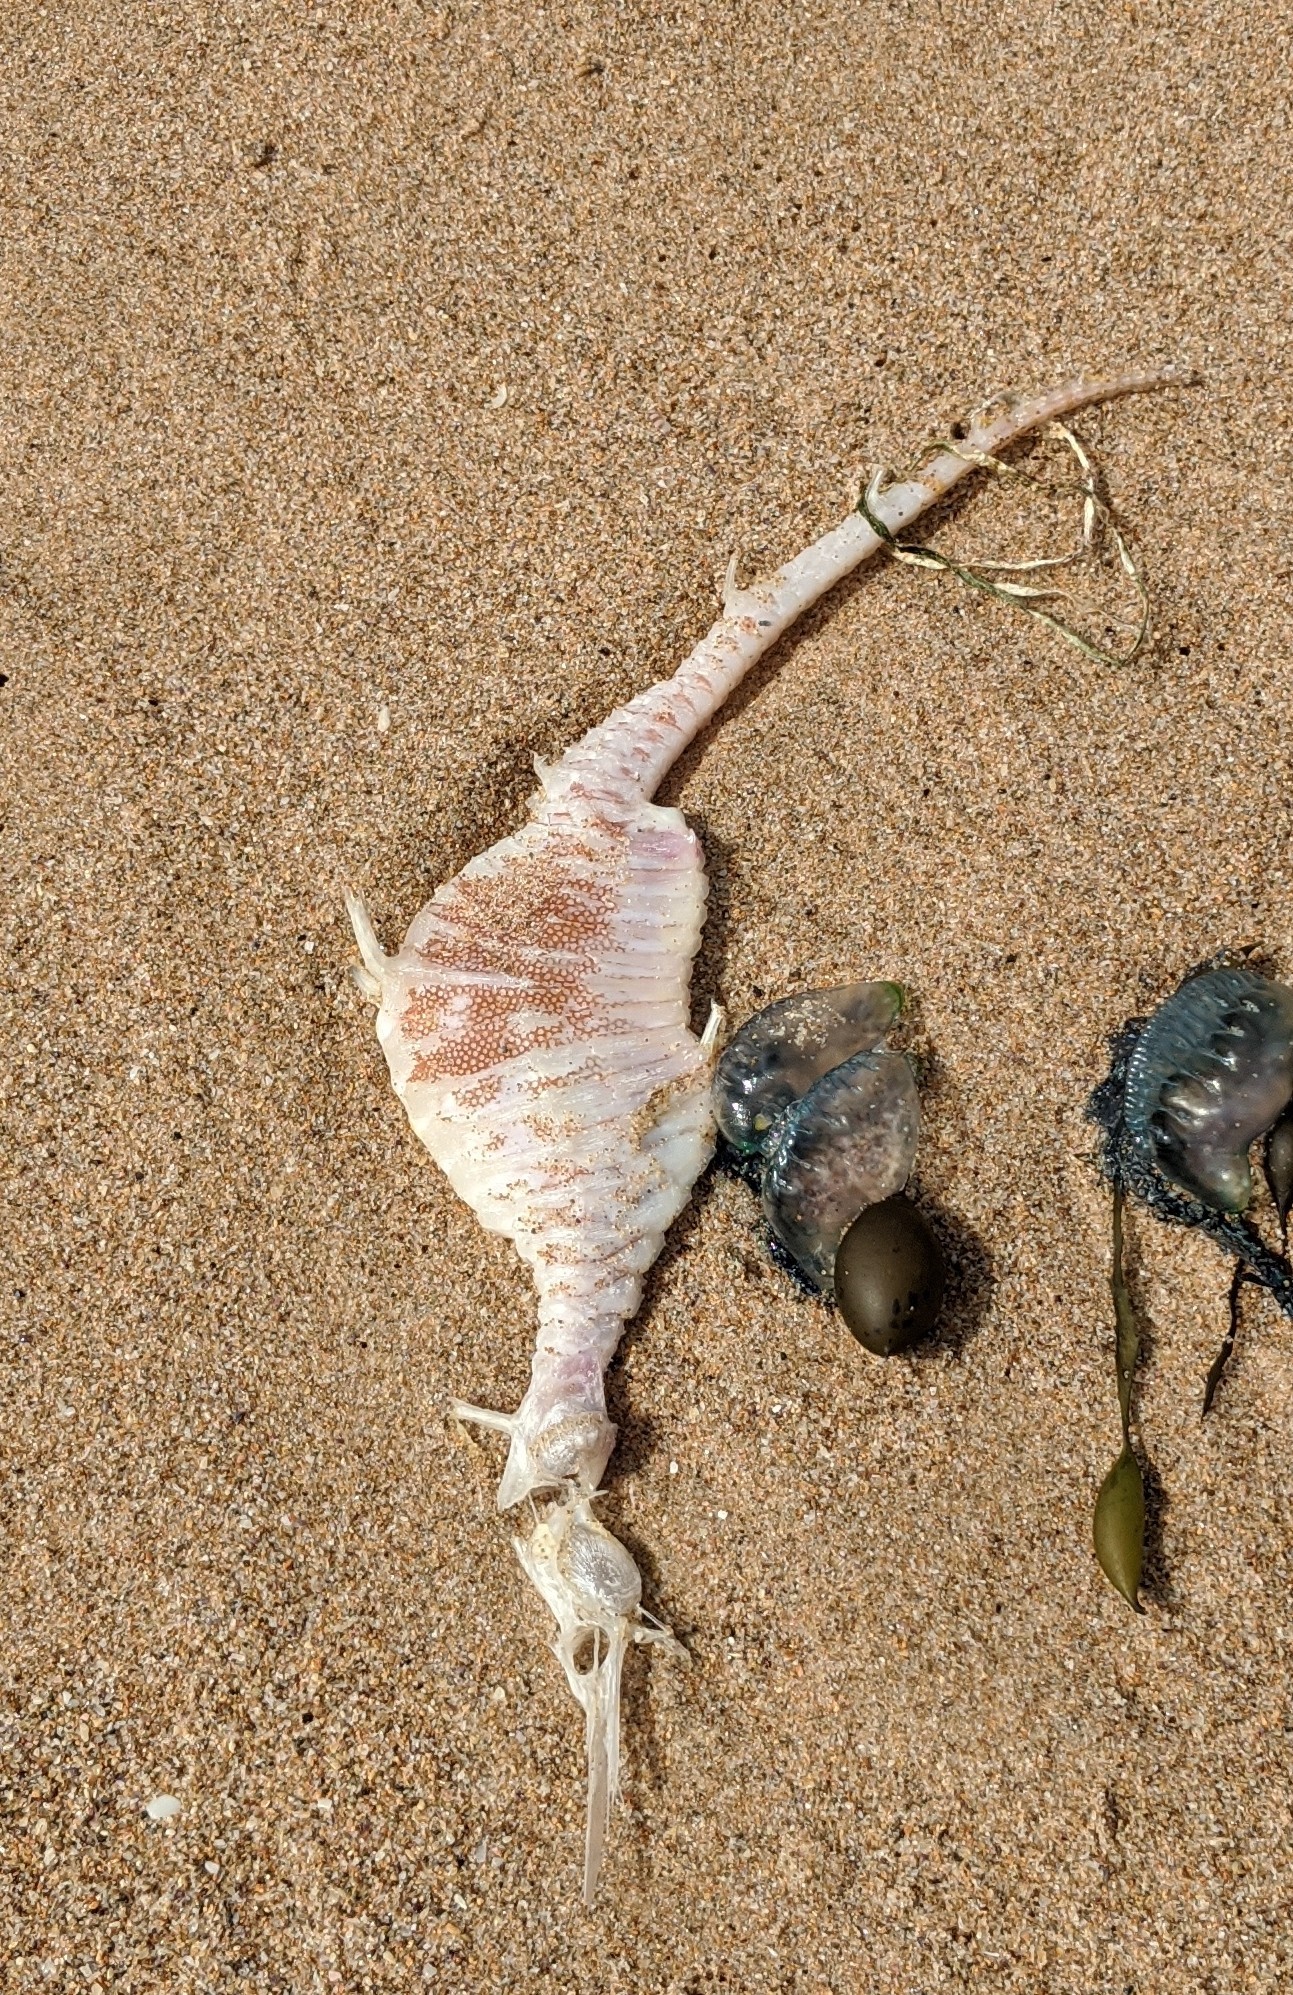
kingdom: Animalia
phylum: Chordata
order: Syngnathiformes
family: Syngnathidae
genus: Phyllopteryx
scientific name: Phyllopteryx taeniolatus
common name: Common seadragon
